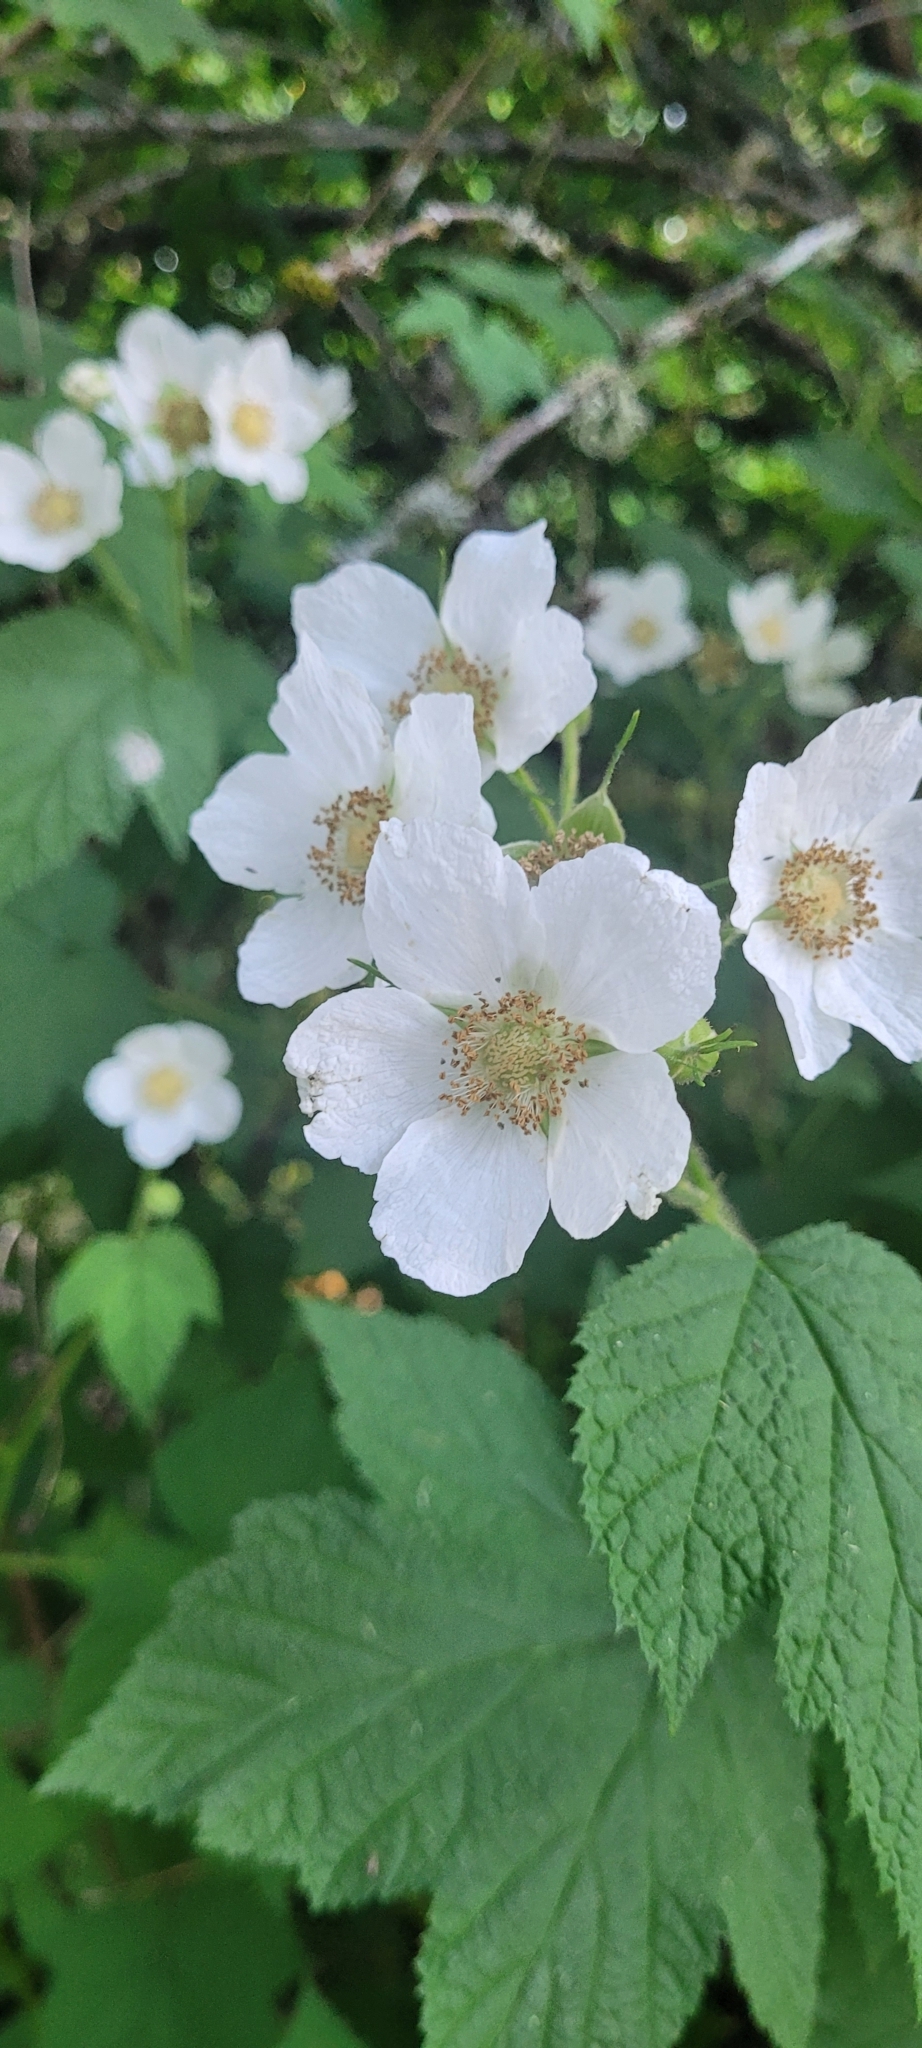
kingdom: Plantae
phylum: Tracheophyta
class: Magnoliopsida
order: Rosales
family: Rosaceae
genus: Rubus
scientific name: Rubus parviflorus
